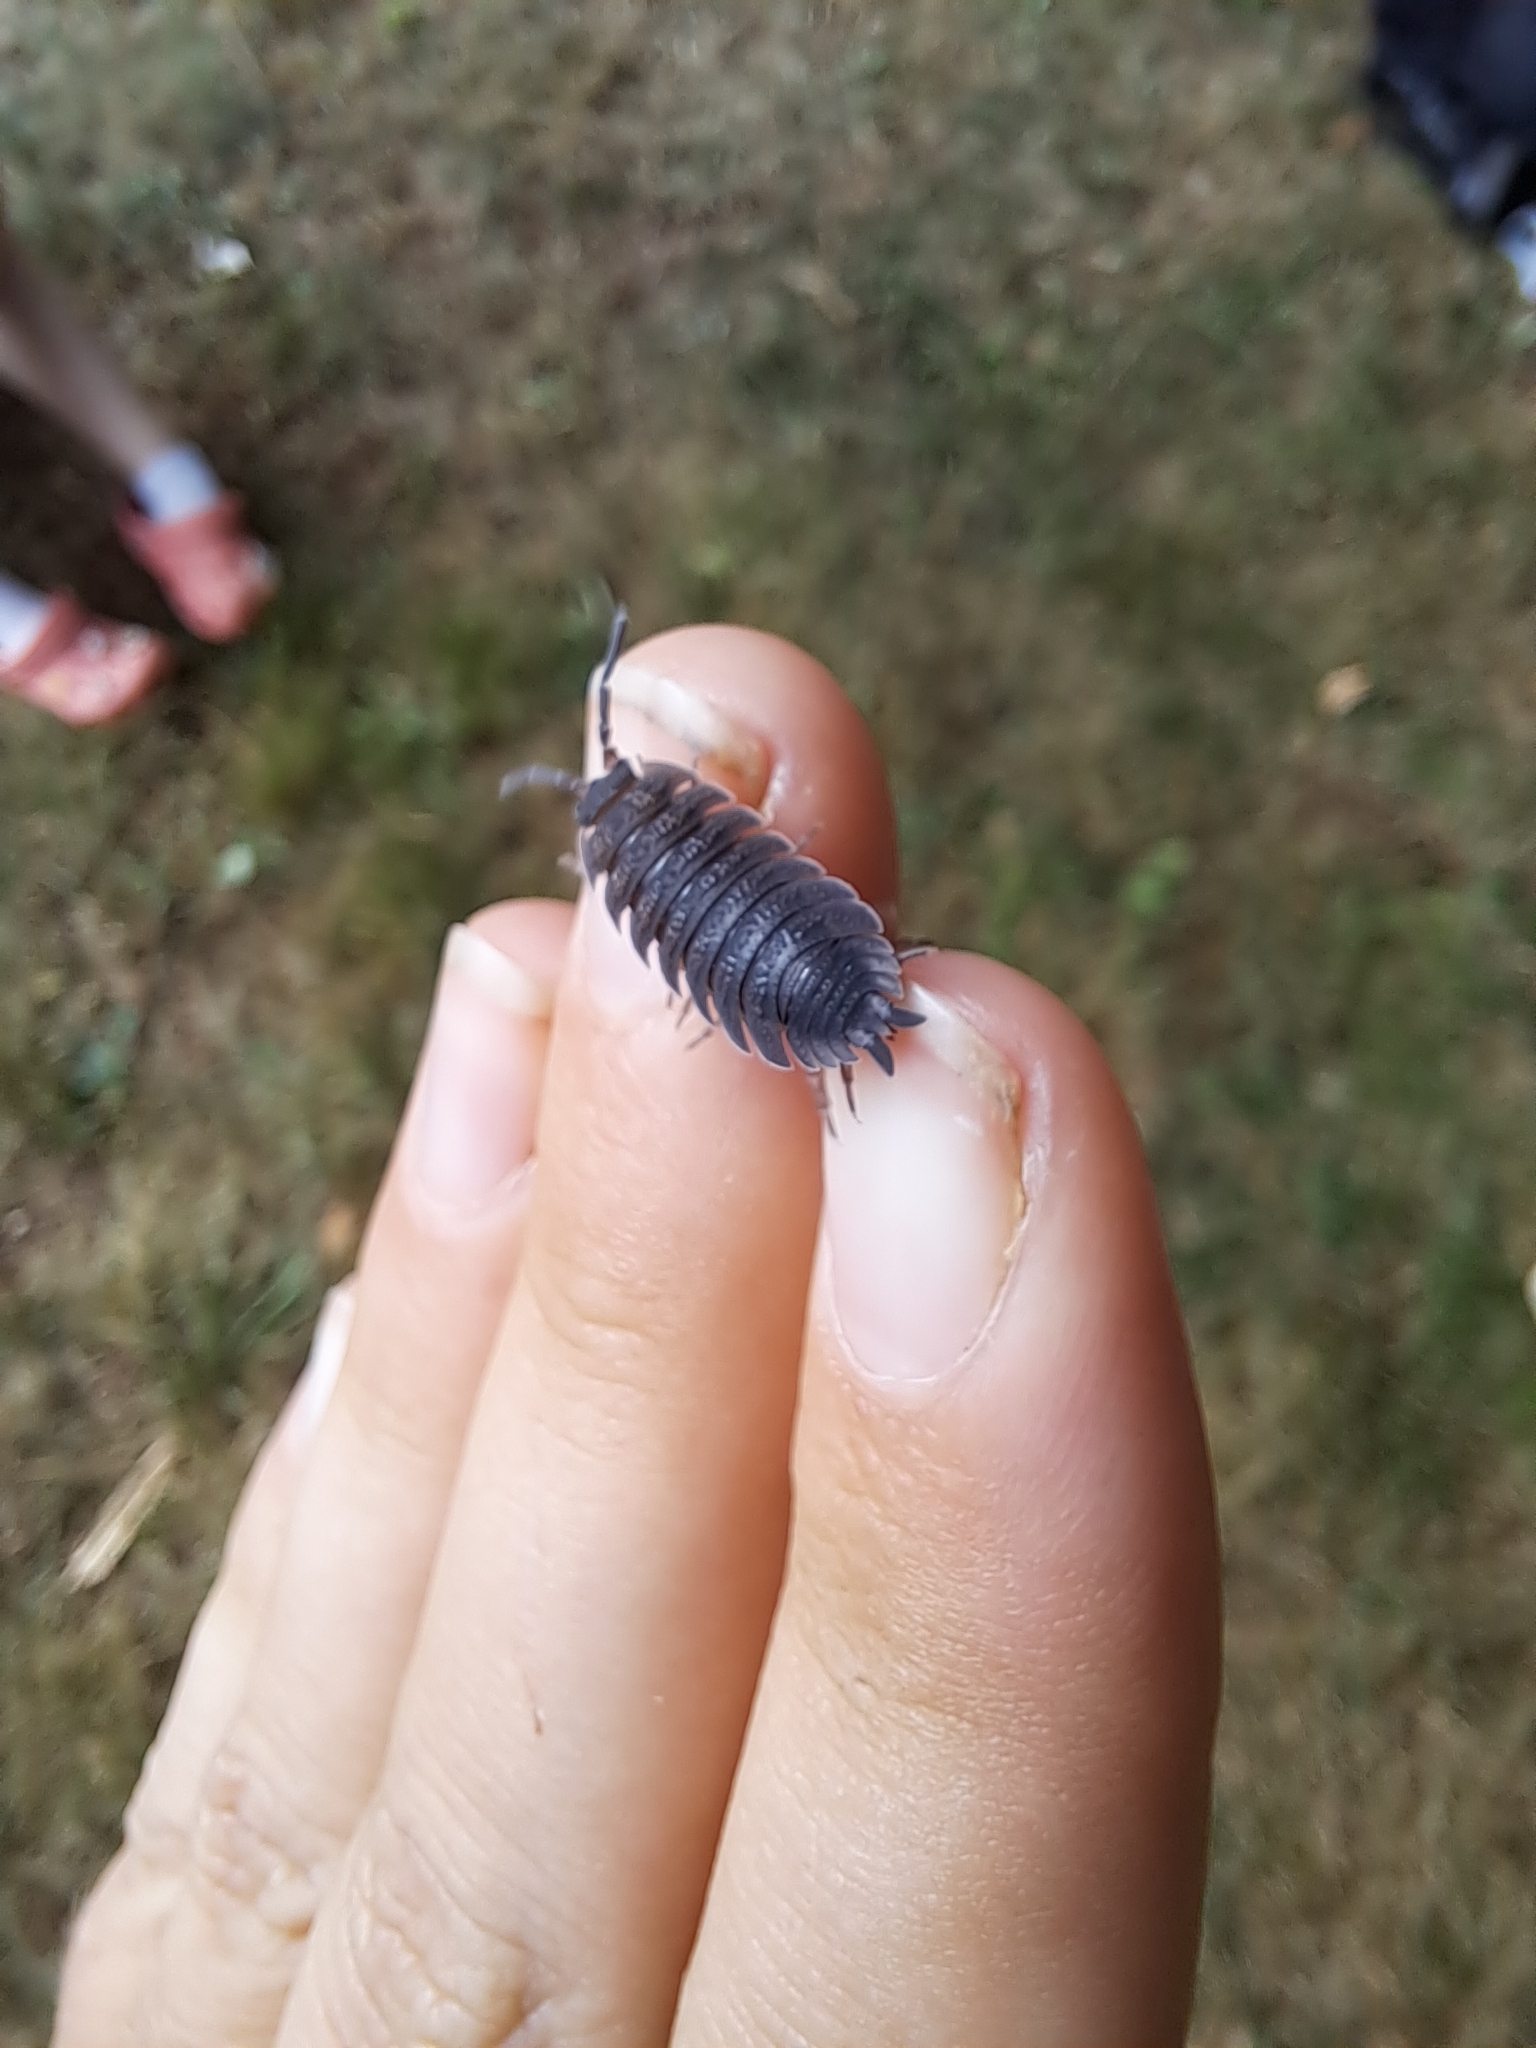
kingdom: Animalia
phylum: Arthropoda
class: Malacostraca
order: Isopoda
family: Porcellionidae
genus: Porcellio
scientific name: Porcellio scaber
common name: Common rough woodlouse
